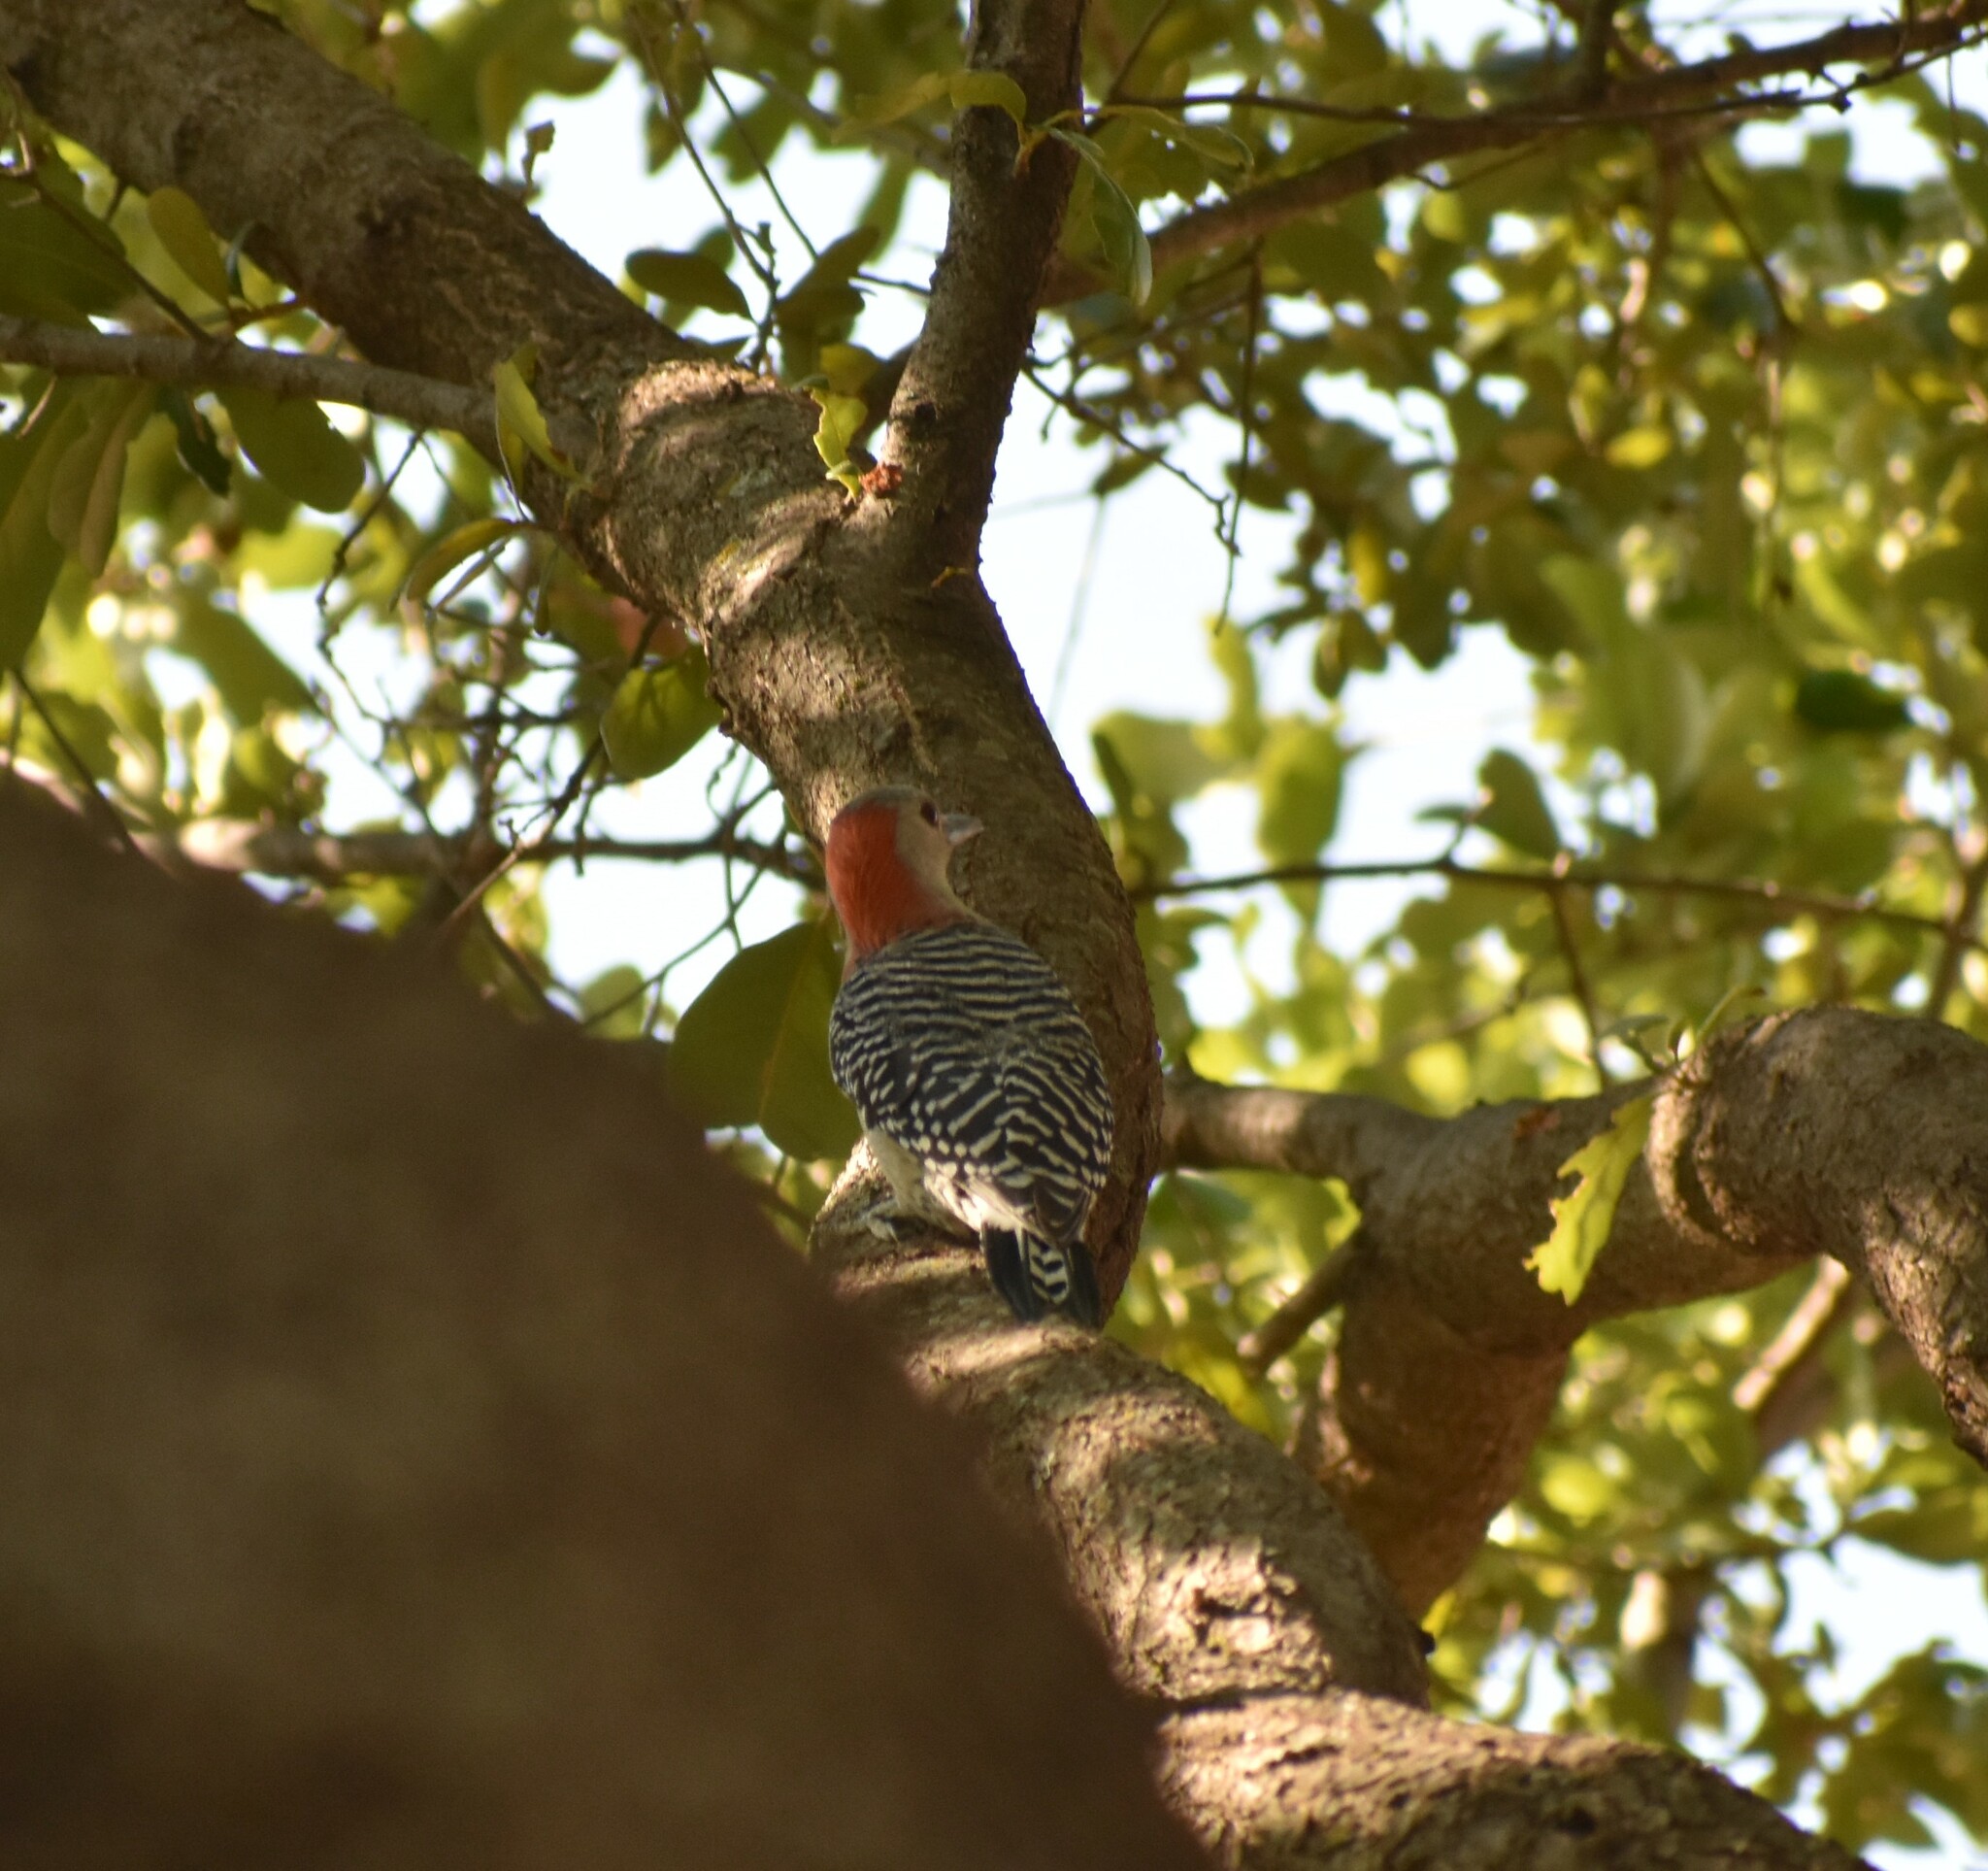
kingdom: Animalia
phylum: Chordata
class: Aves
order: Piciformes
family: Picidae
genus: Melanerpes
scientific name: Melanerpes carolinus
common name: Red-bellied woodpecker
